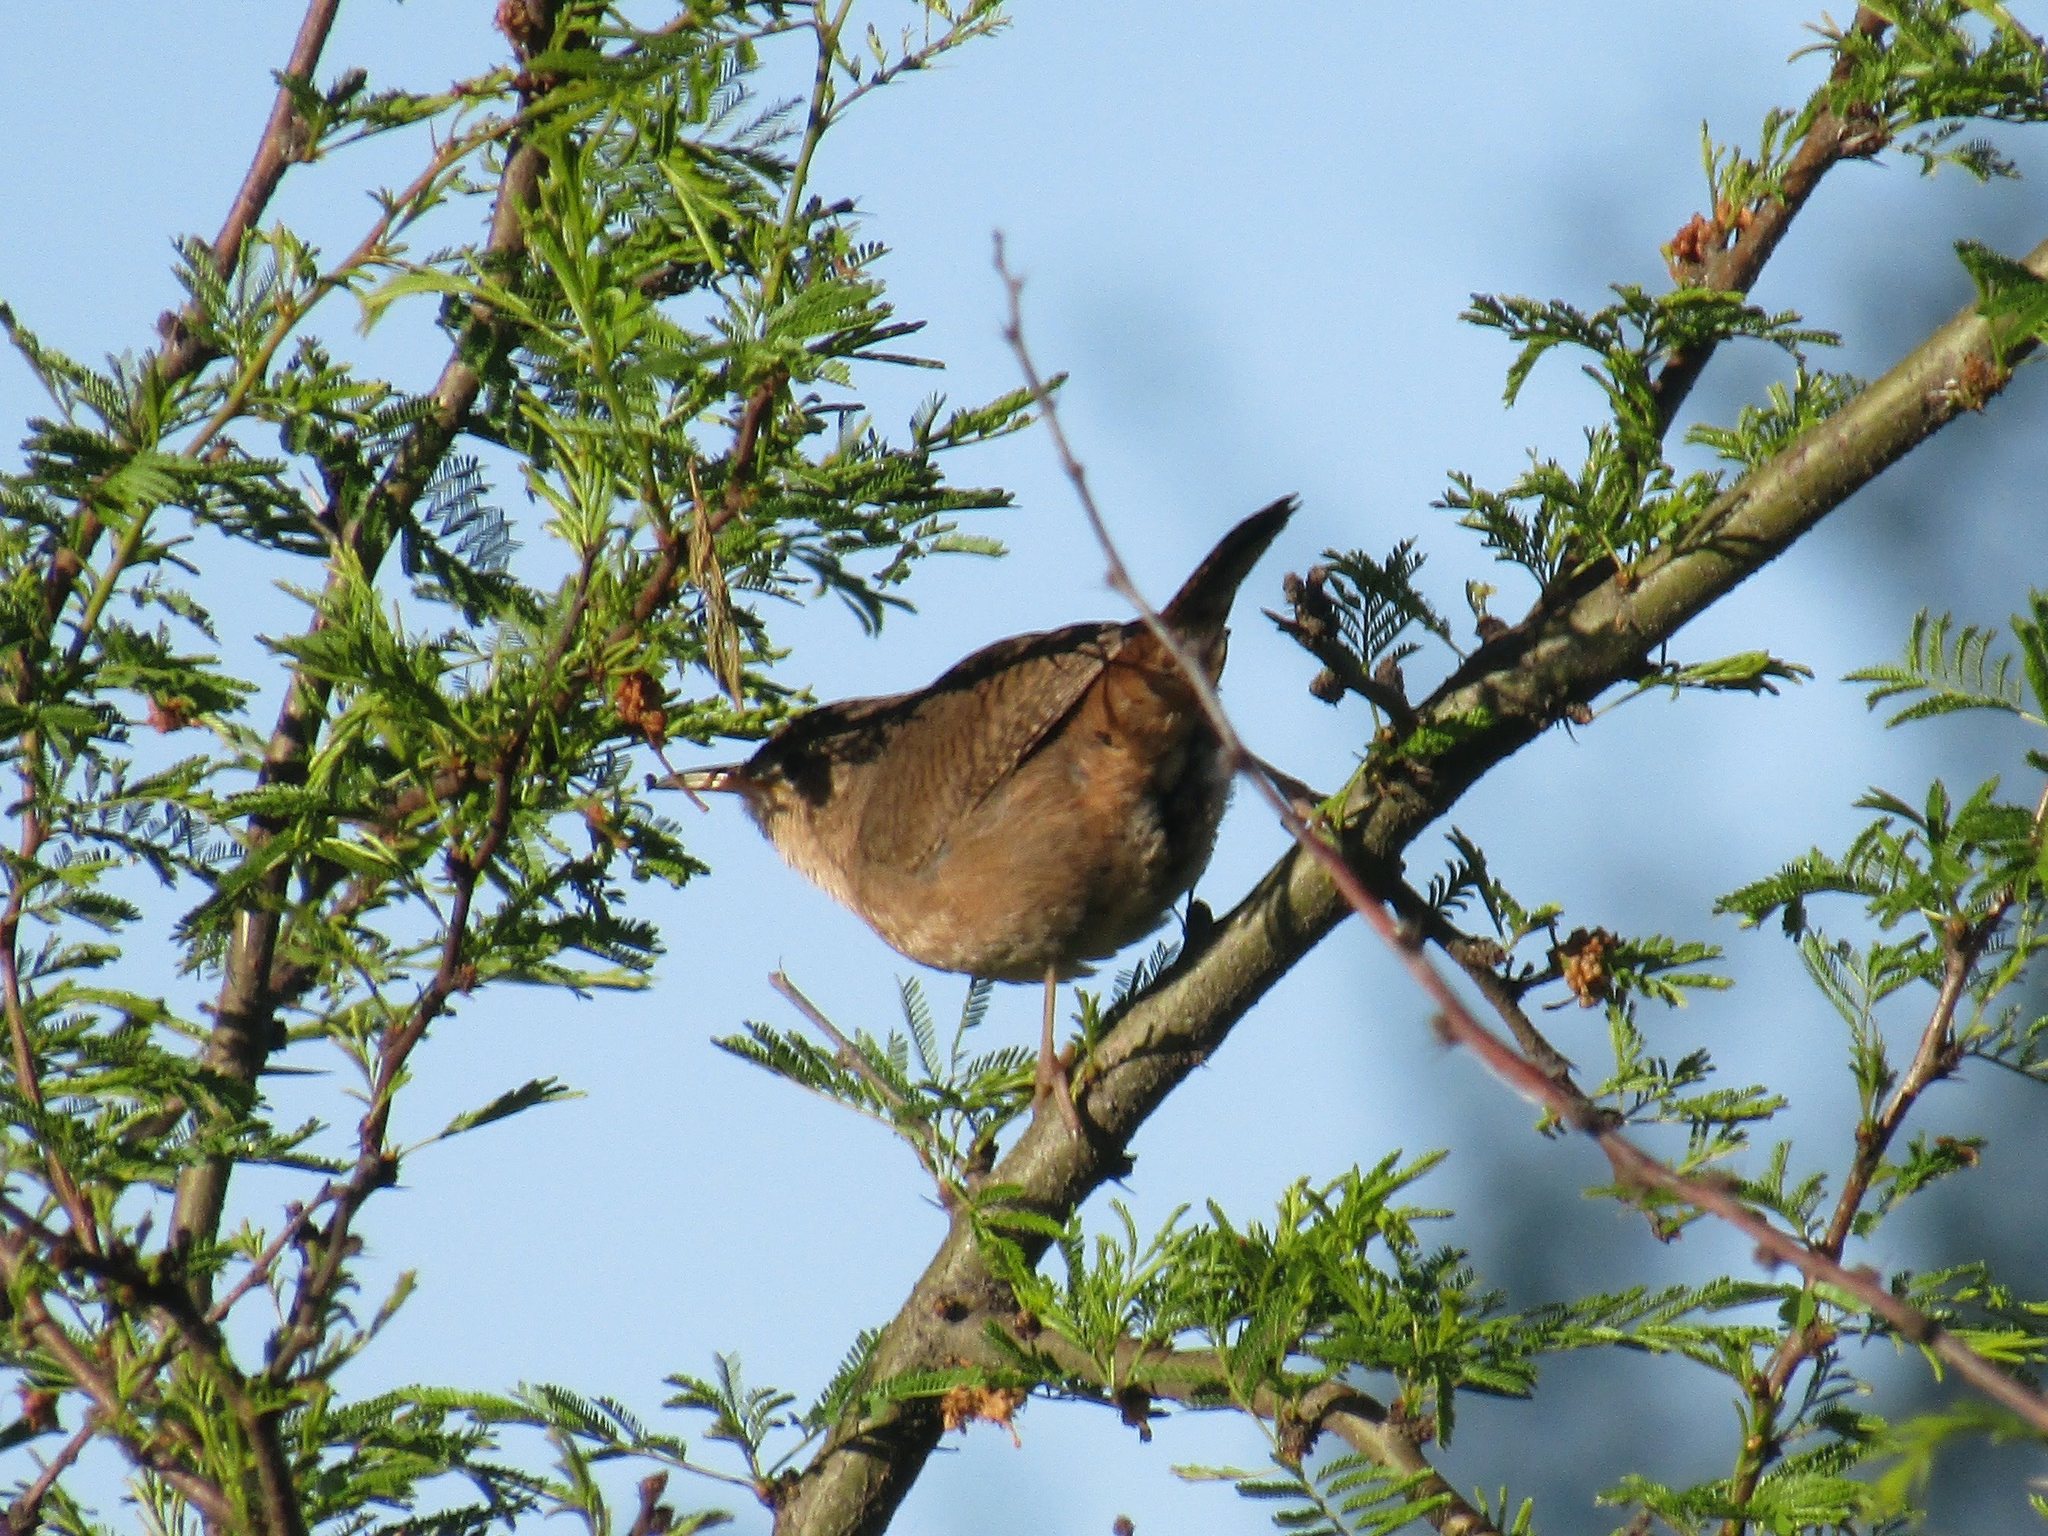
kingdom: Animalia
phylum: Chordata
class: Aves
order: Passeriformes
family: Troglodytidae
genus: Troglodytes
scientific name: Troglodytes aedon
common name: House wren
